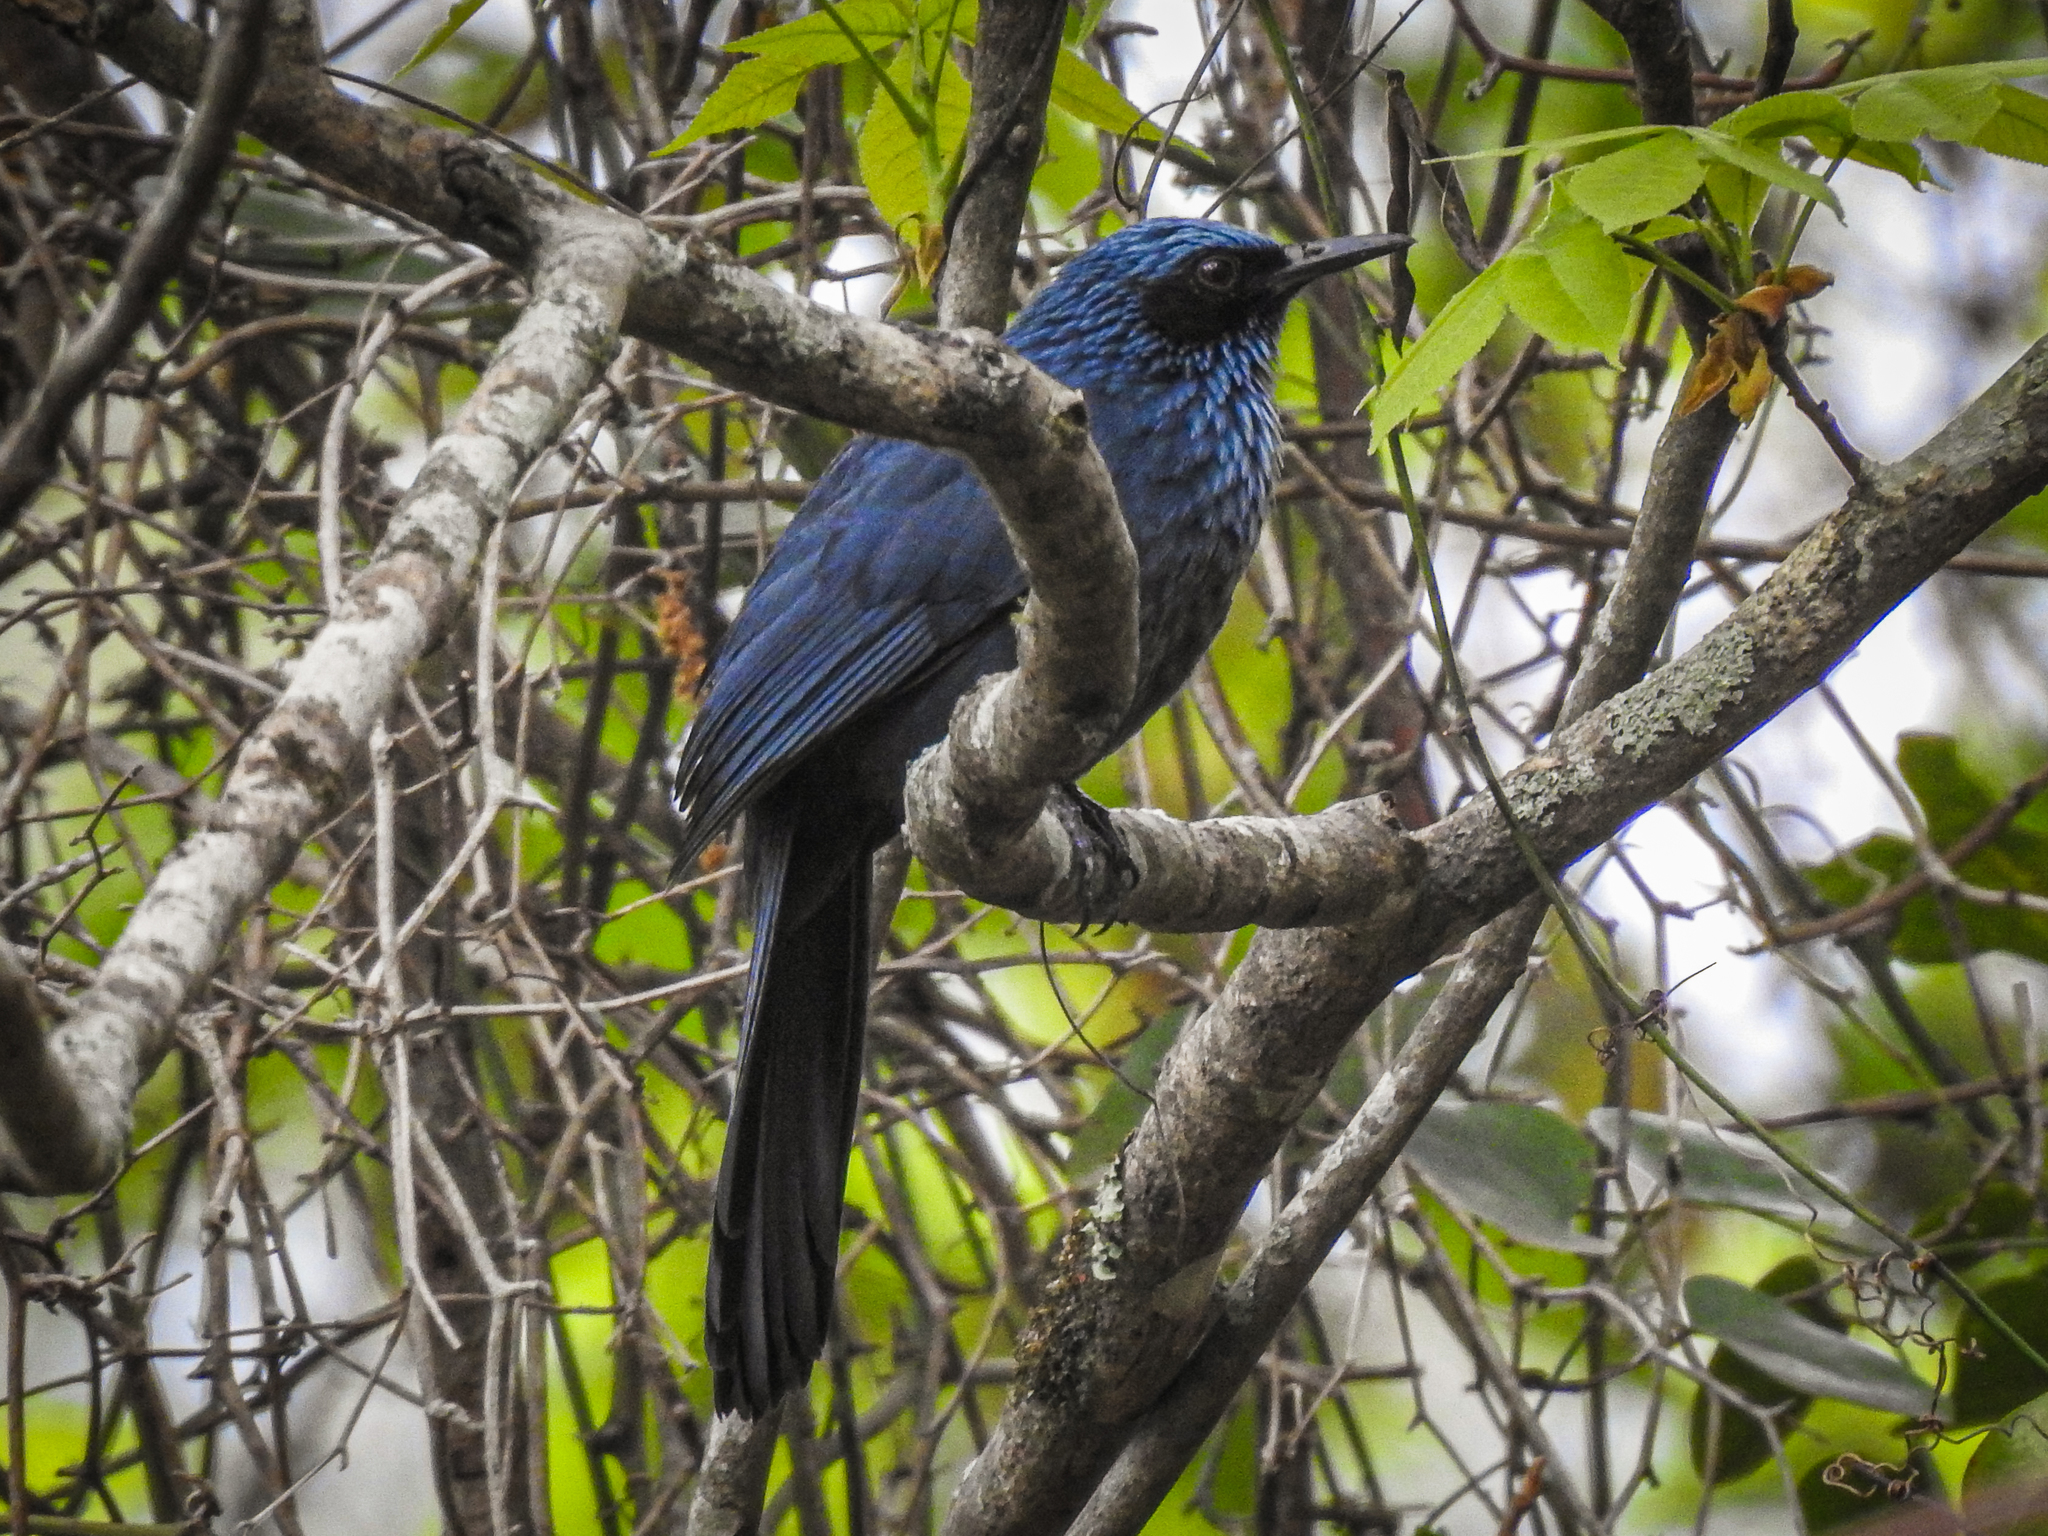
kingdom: Animalia
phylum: Chordata
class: Aves
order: Passeriformes
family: Mimidae
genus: Melanotis
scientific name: Melanotis caerulescens
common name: Blue mockingbird
